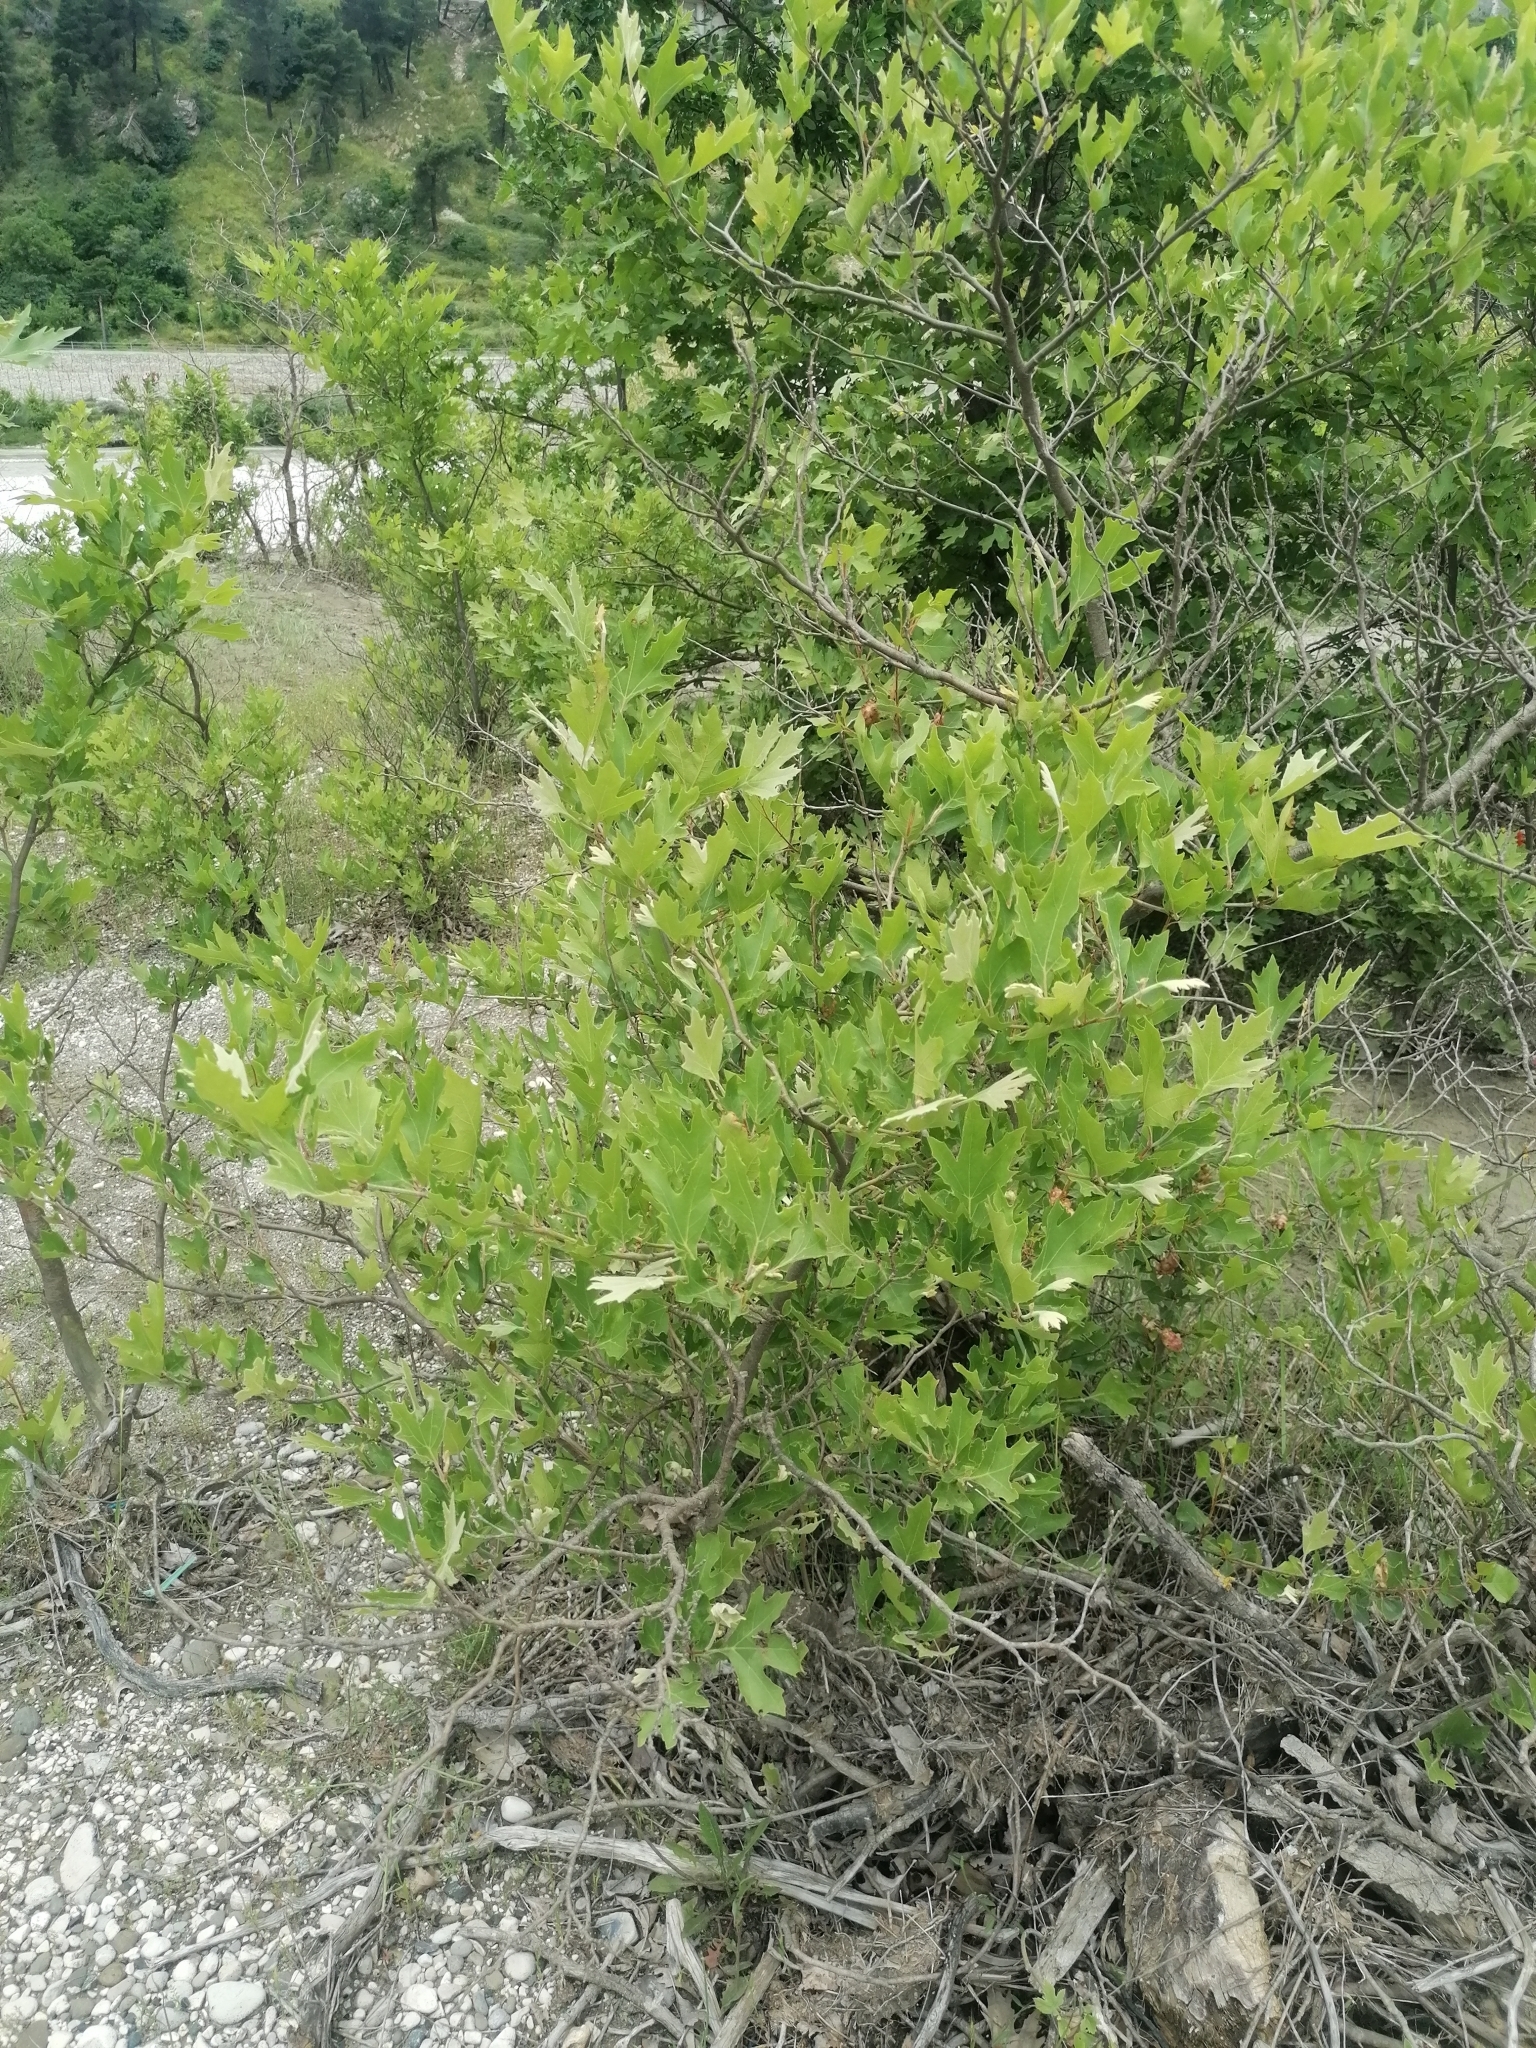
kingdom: Plantae
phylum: Tracheophyta
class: Magnoliopsida
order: Proteales
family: Platanaceae
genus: Platanus
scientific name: Platanus orientalis
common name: Oriental plane
